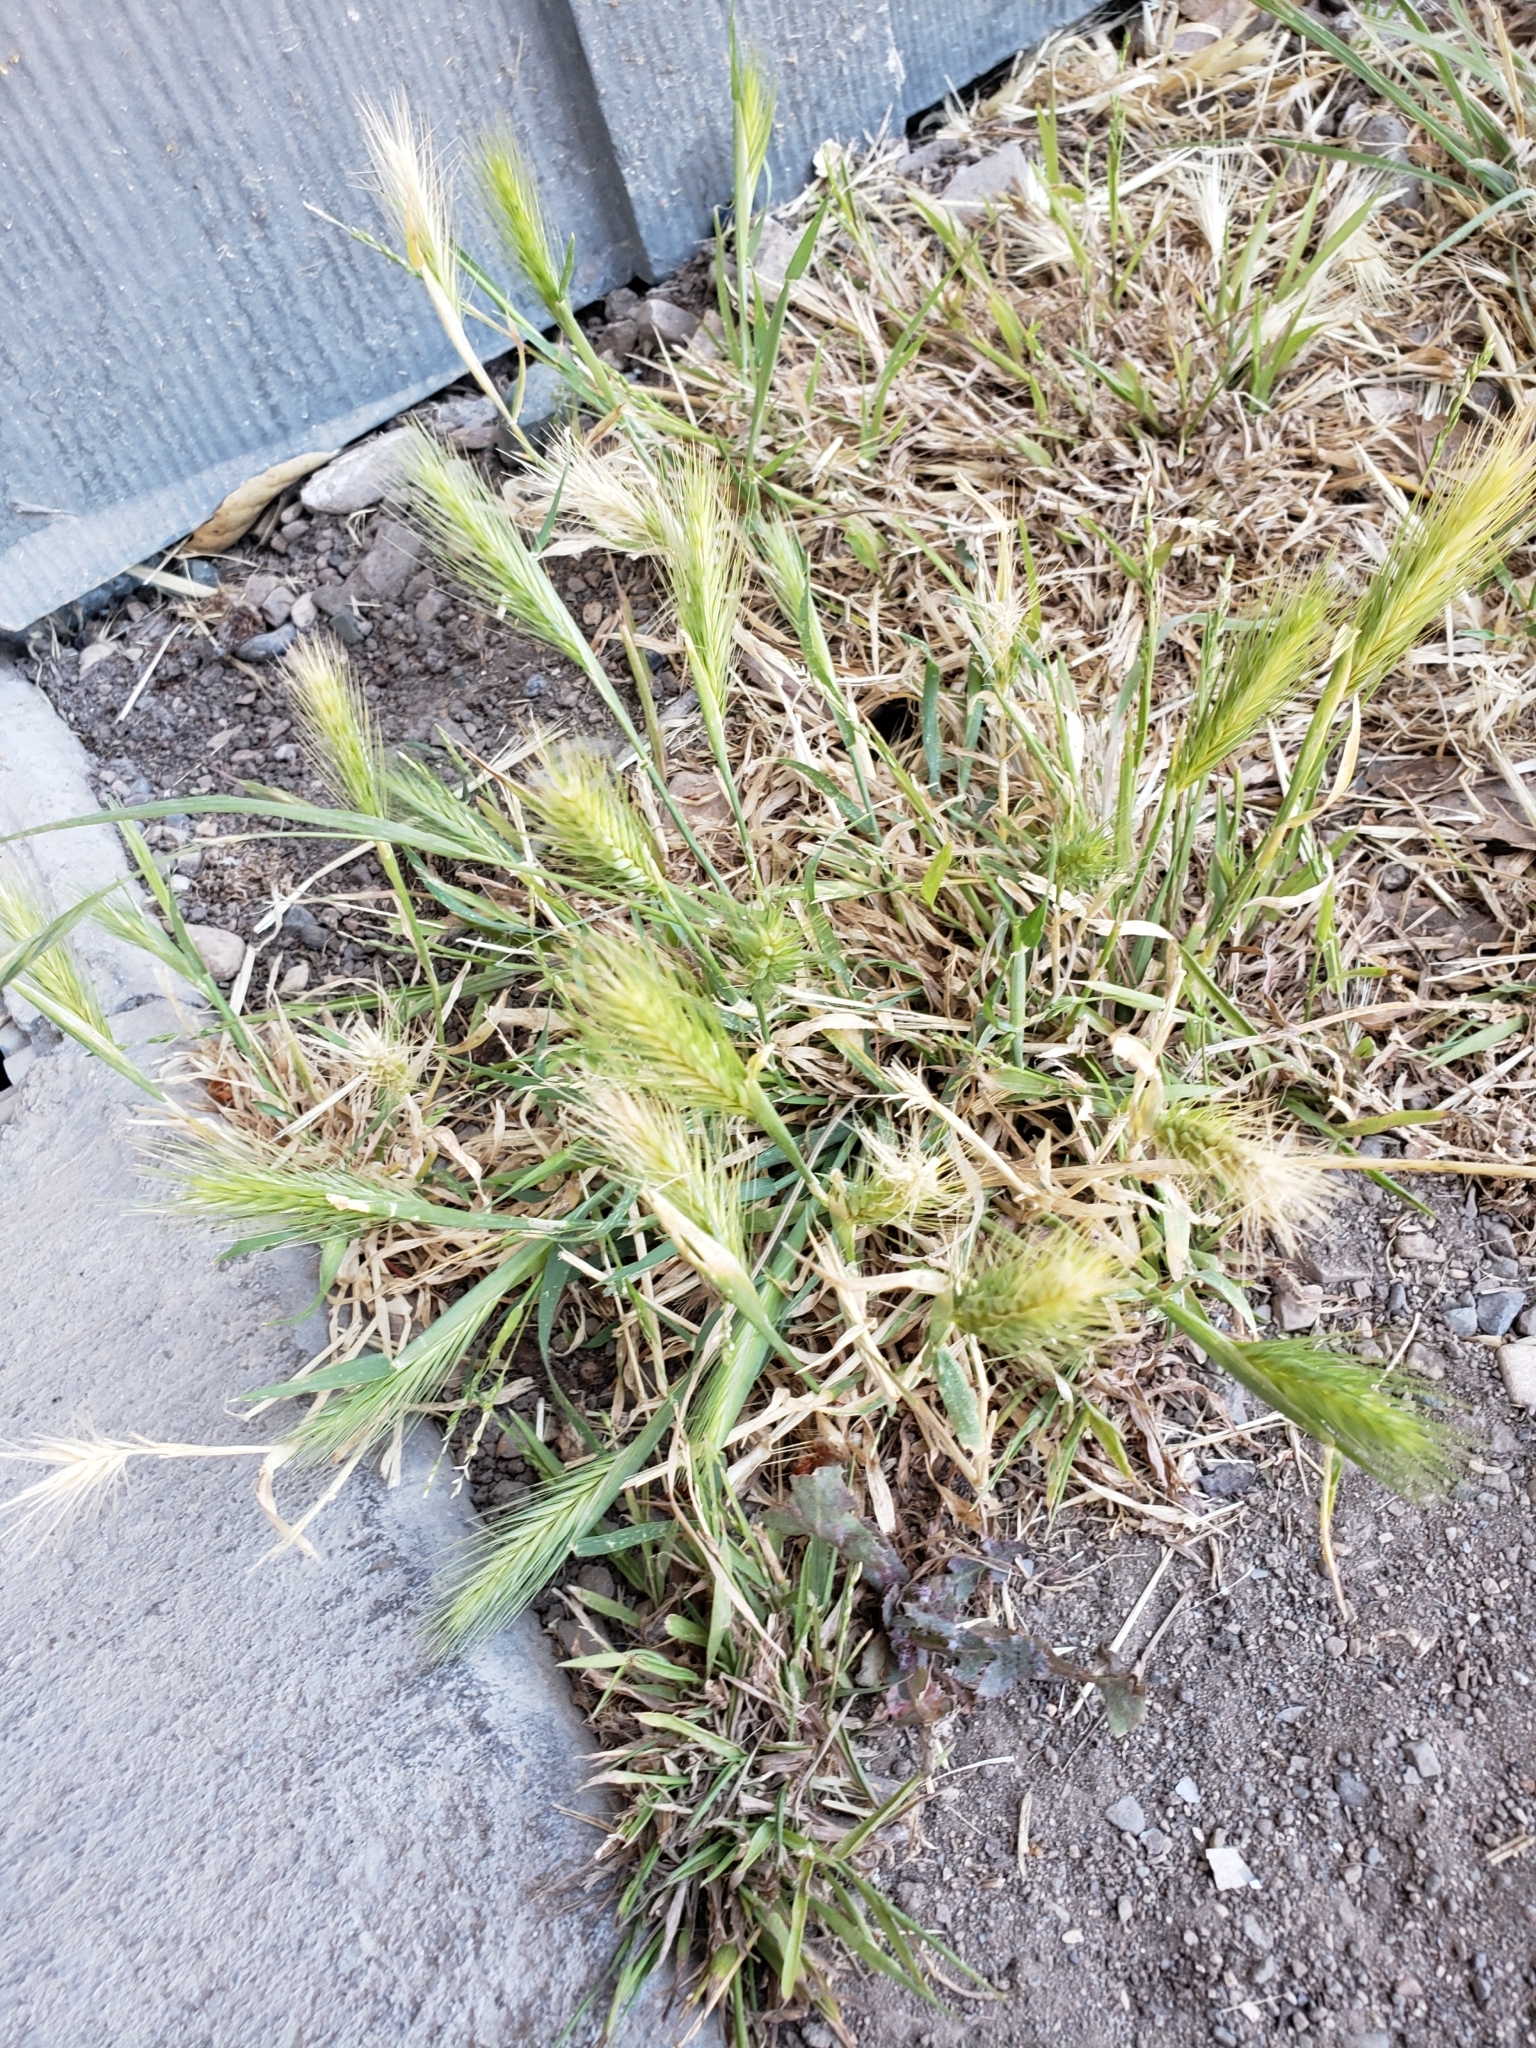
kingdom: Plantae
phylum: Tracheophyta
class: Liliopsida
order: Poales
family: Poaceae
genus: Hordeum
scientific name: Hordeum murinum
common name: Wall barley
